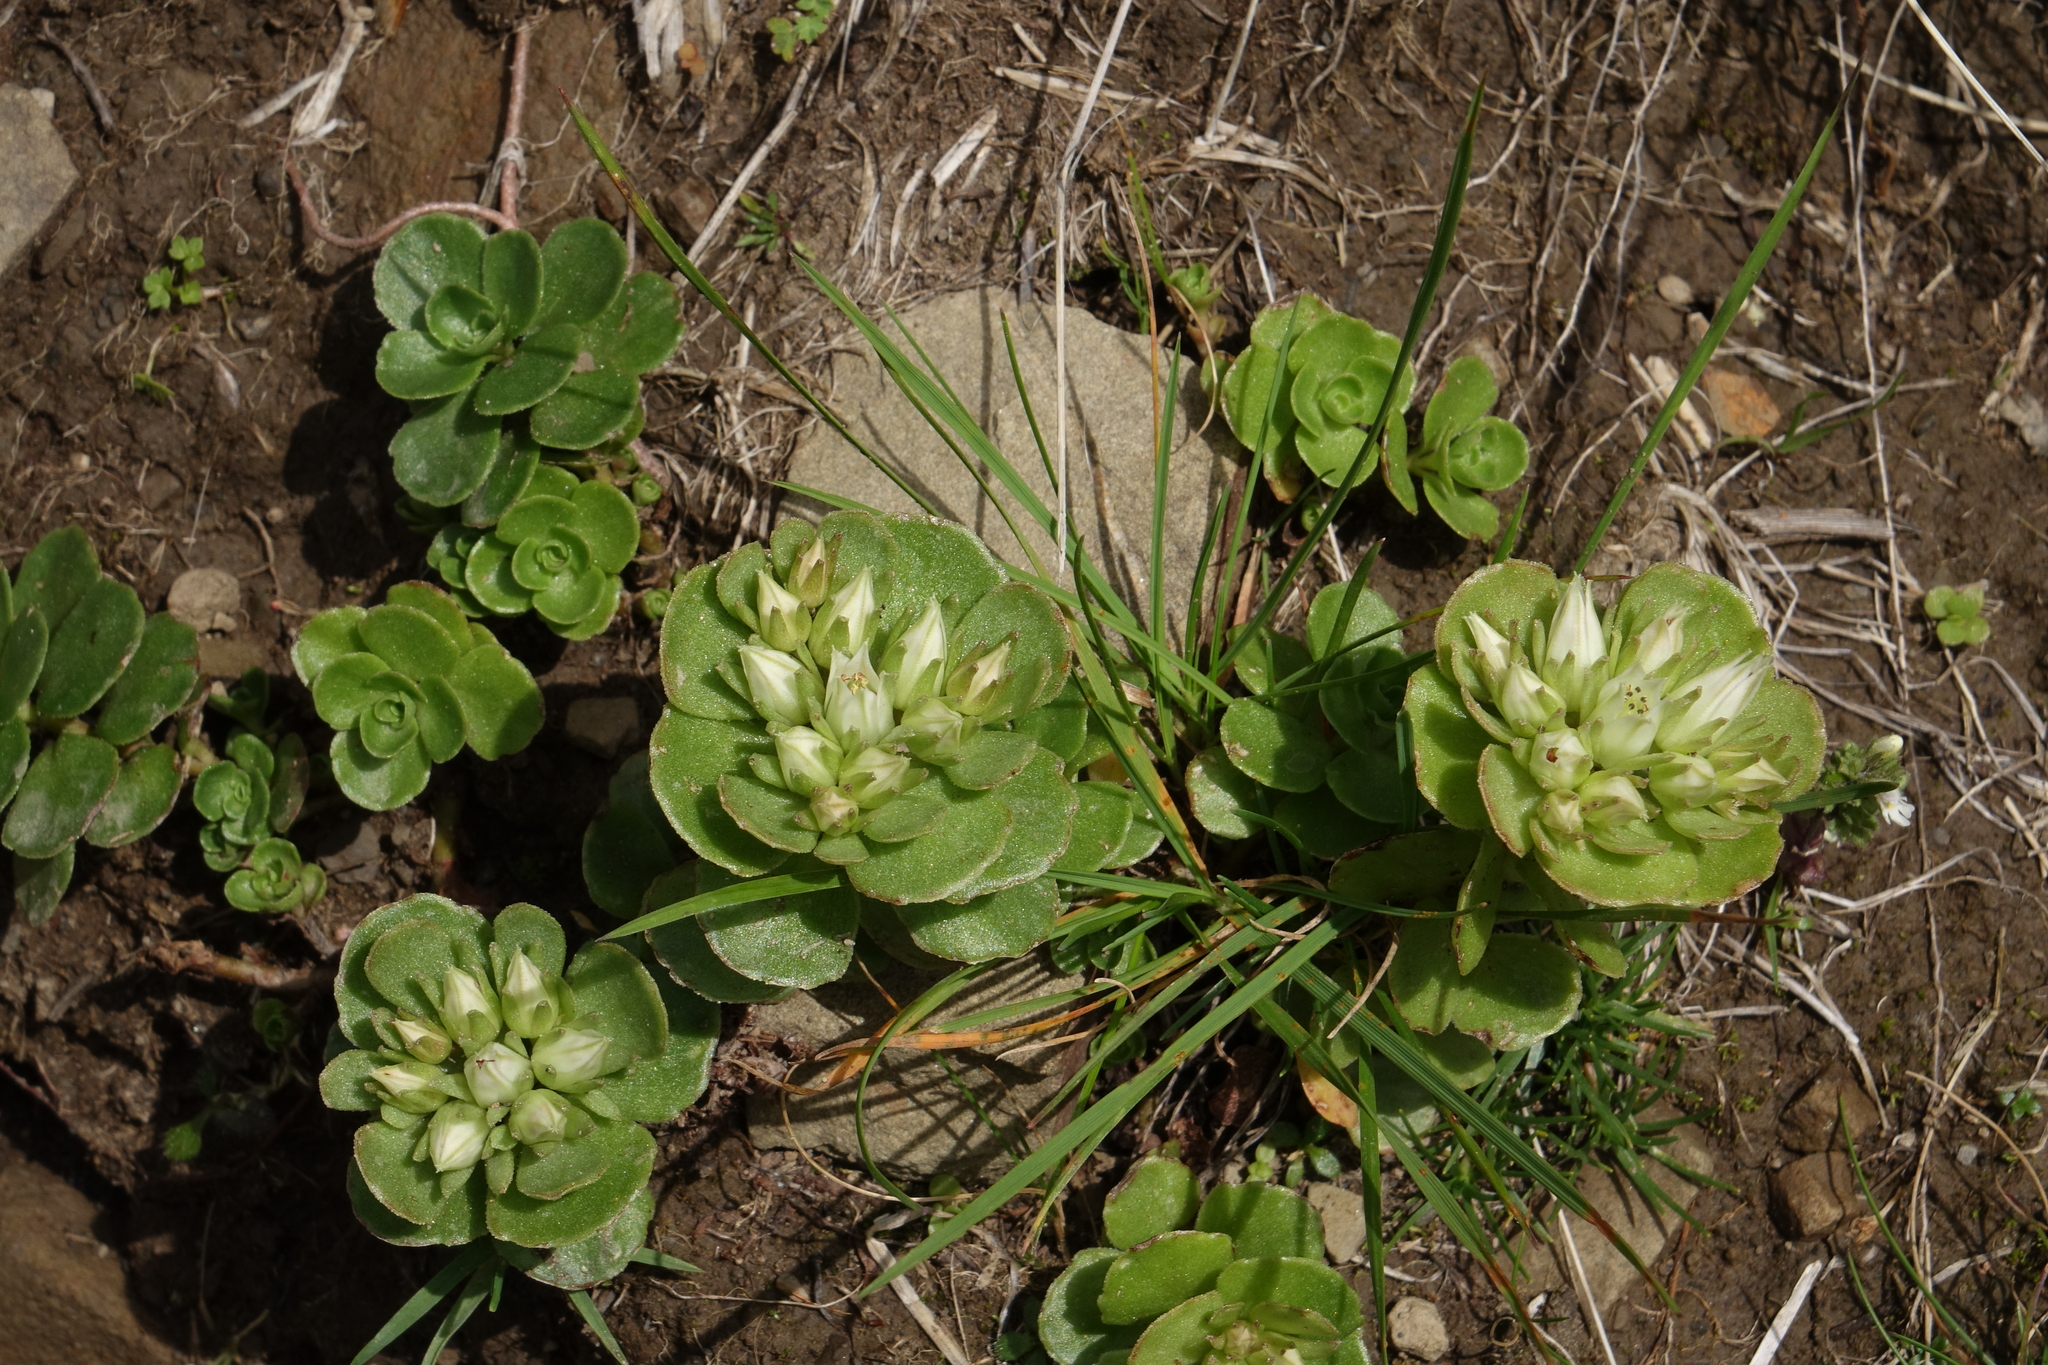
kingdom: Plantae
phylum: Tracheophyta
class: Magnoliopsida
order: Saxifragales
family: Crassulaceae
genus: Phedimus
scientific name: Phedimus spurius
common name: Caucasian stonecrop
